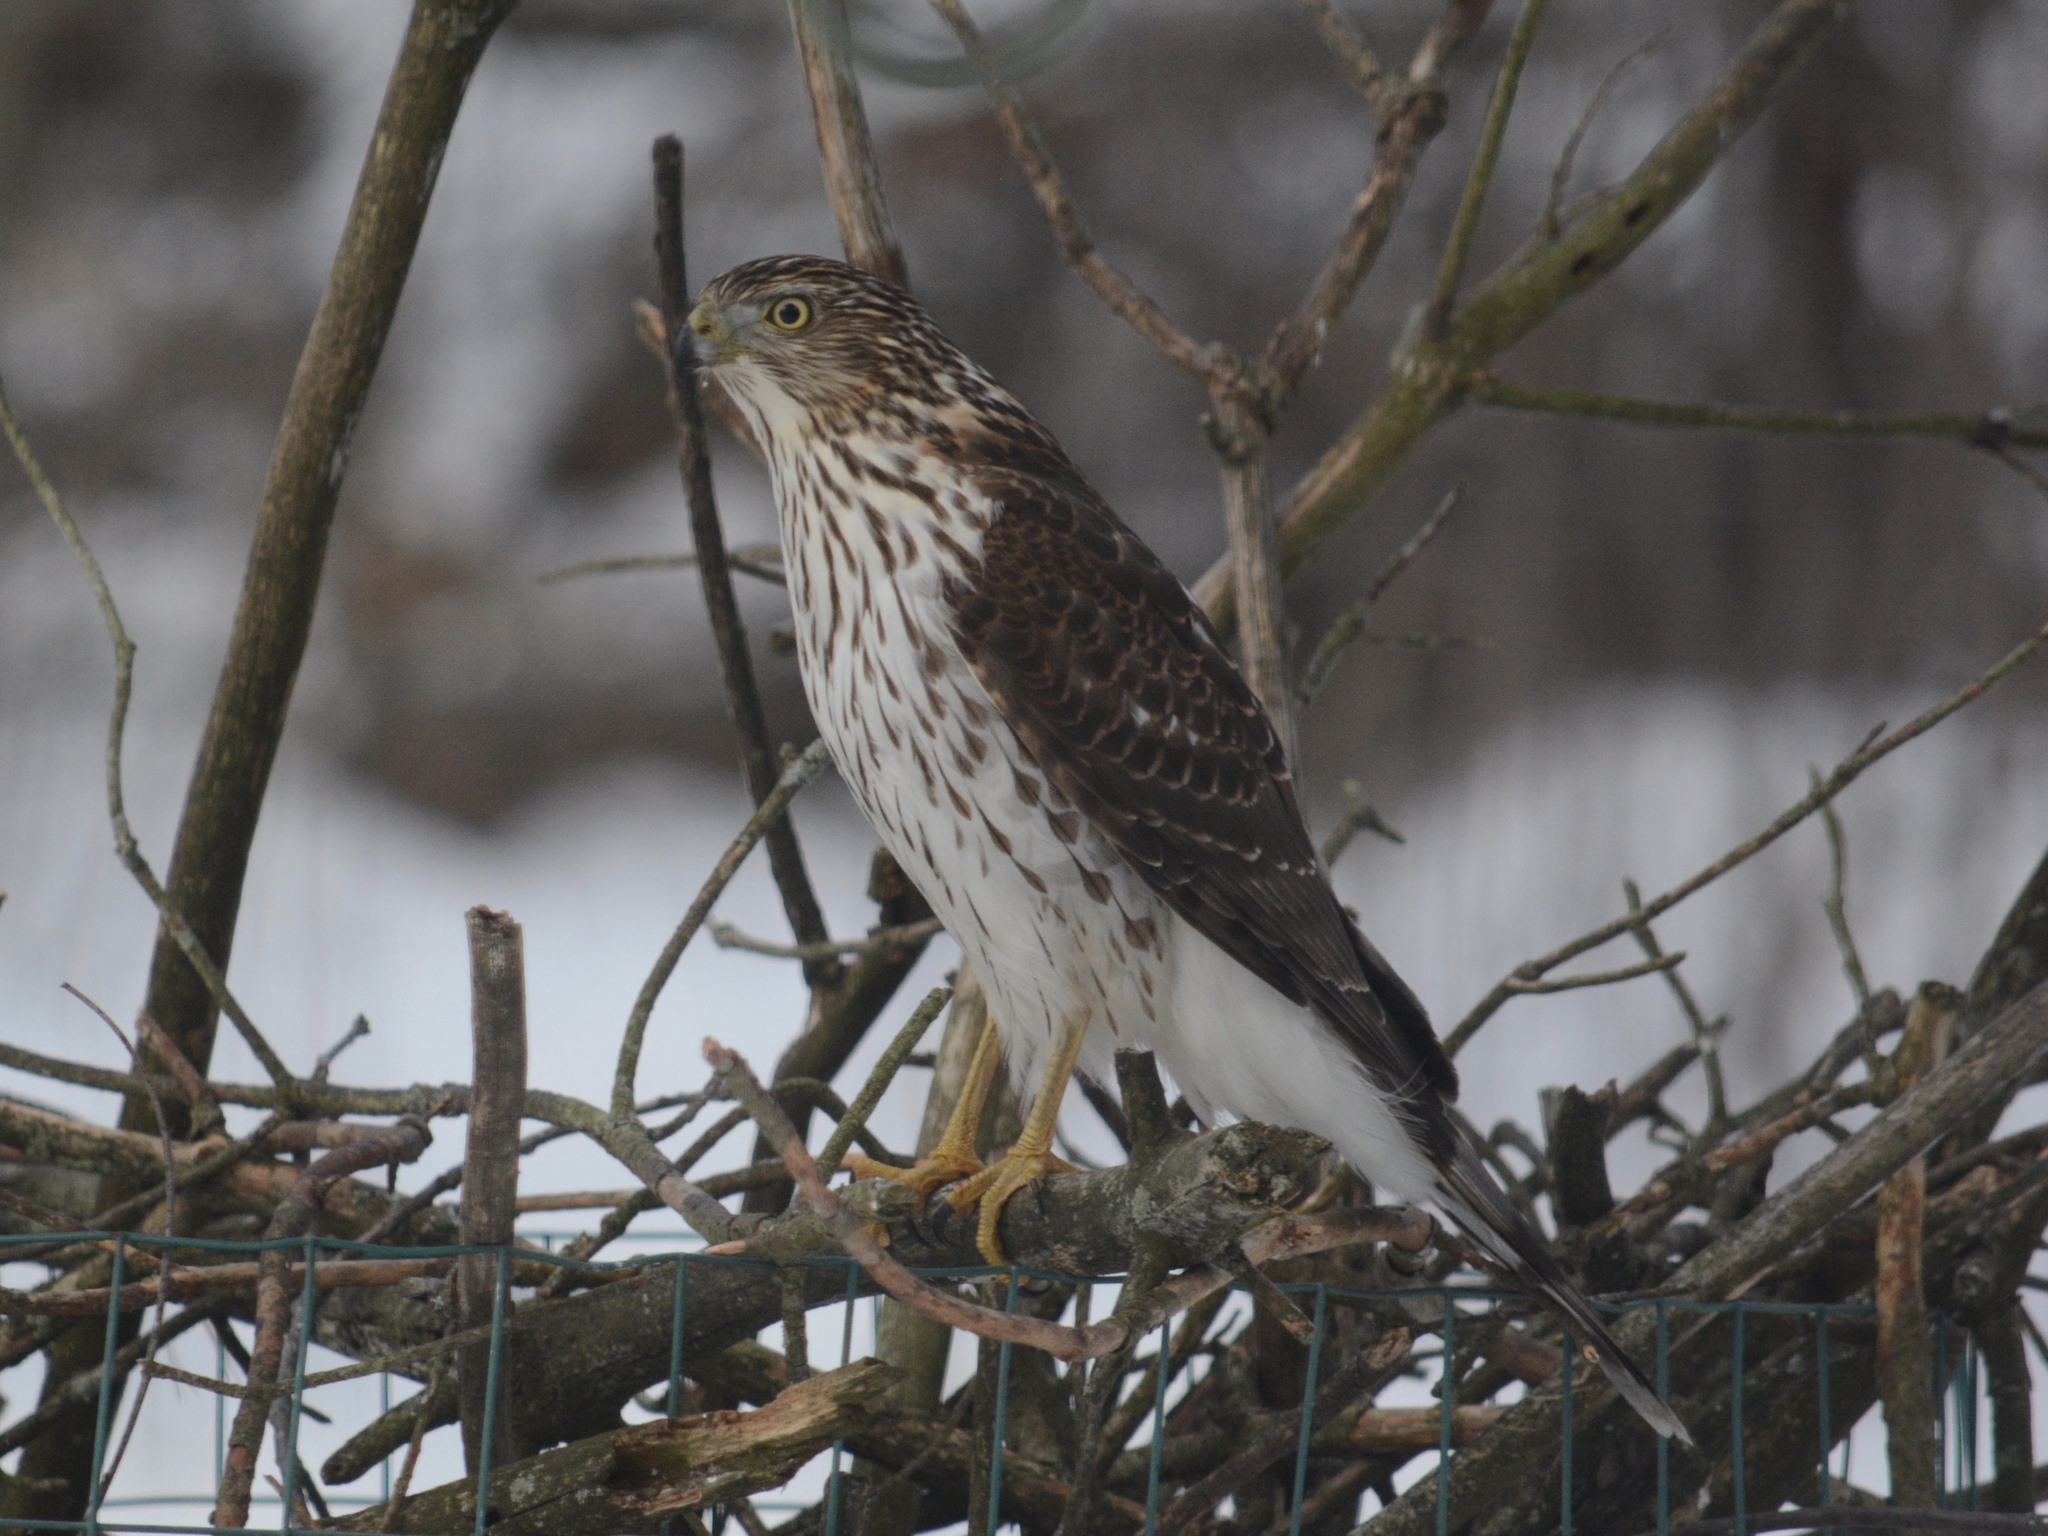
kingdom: Animalia
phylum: Chordata
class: Aves
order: Accipitriformes
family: Accipitridae
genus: Accipiter
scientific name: Accipiter cooperii
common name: Cooper's hawk
